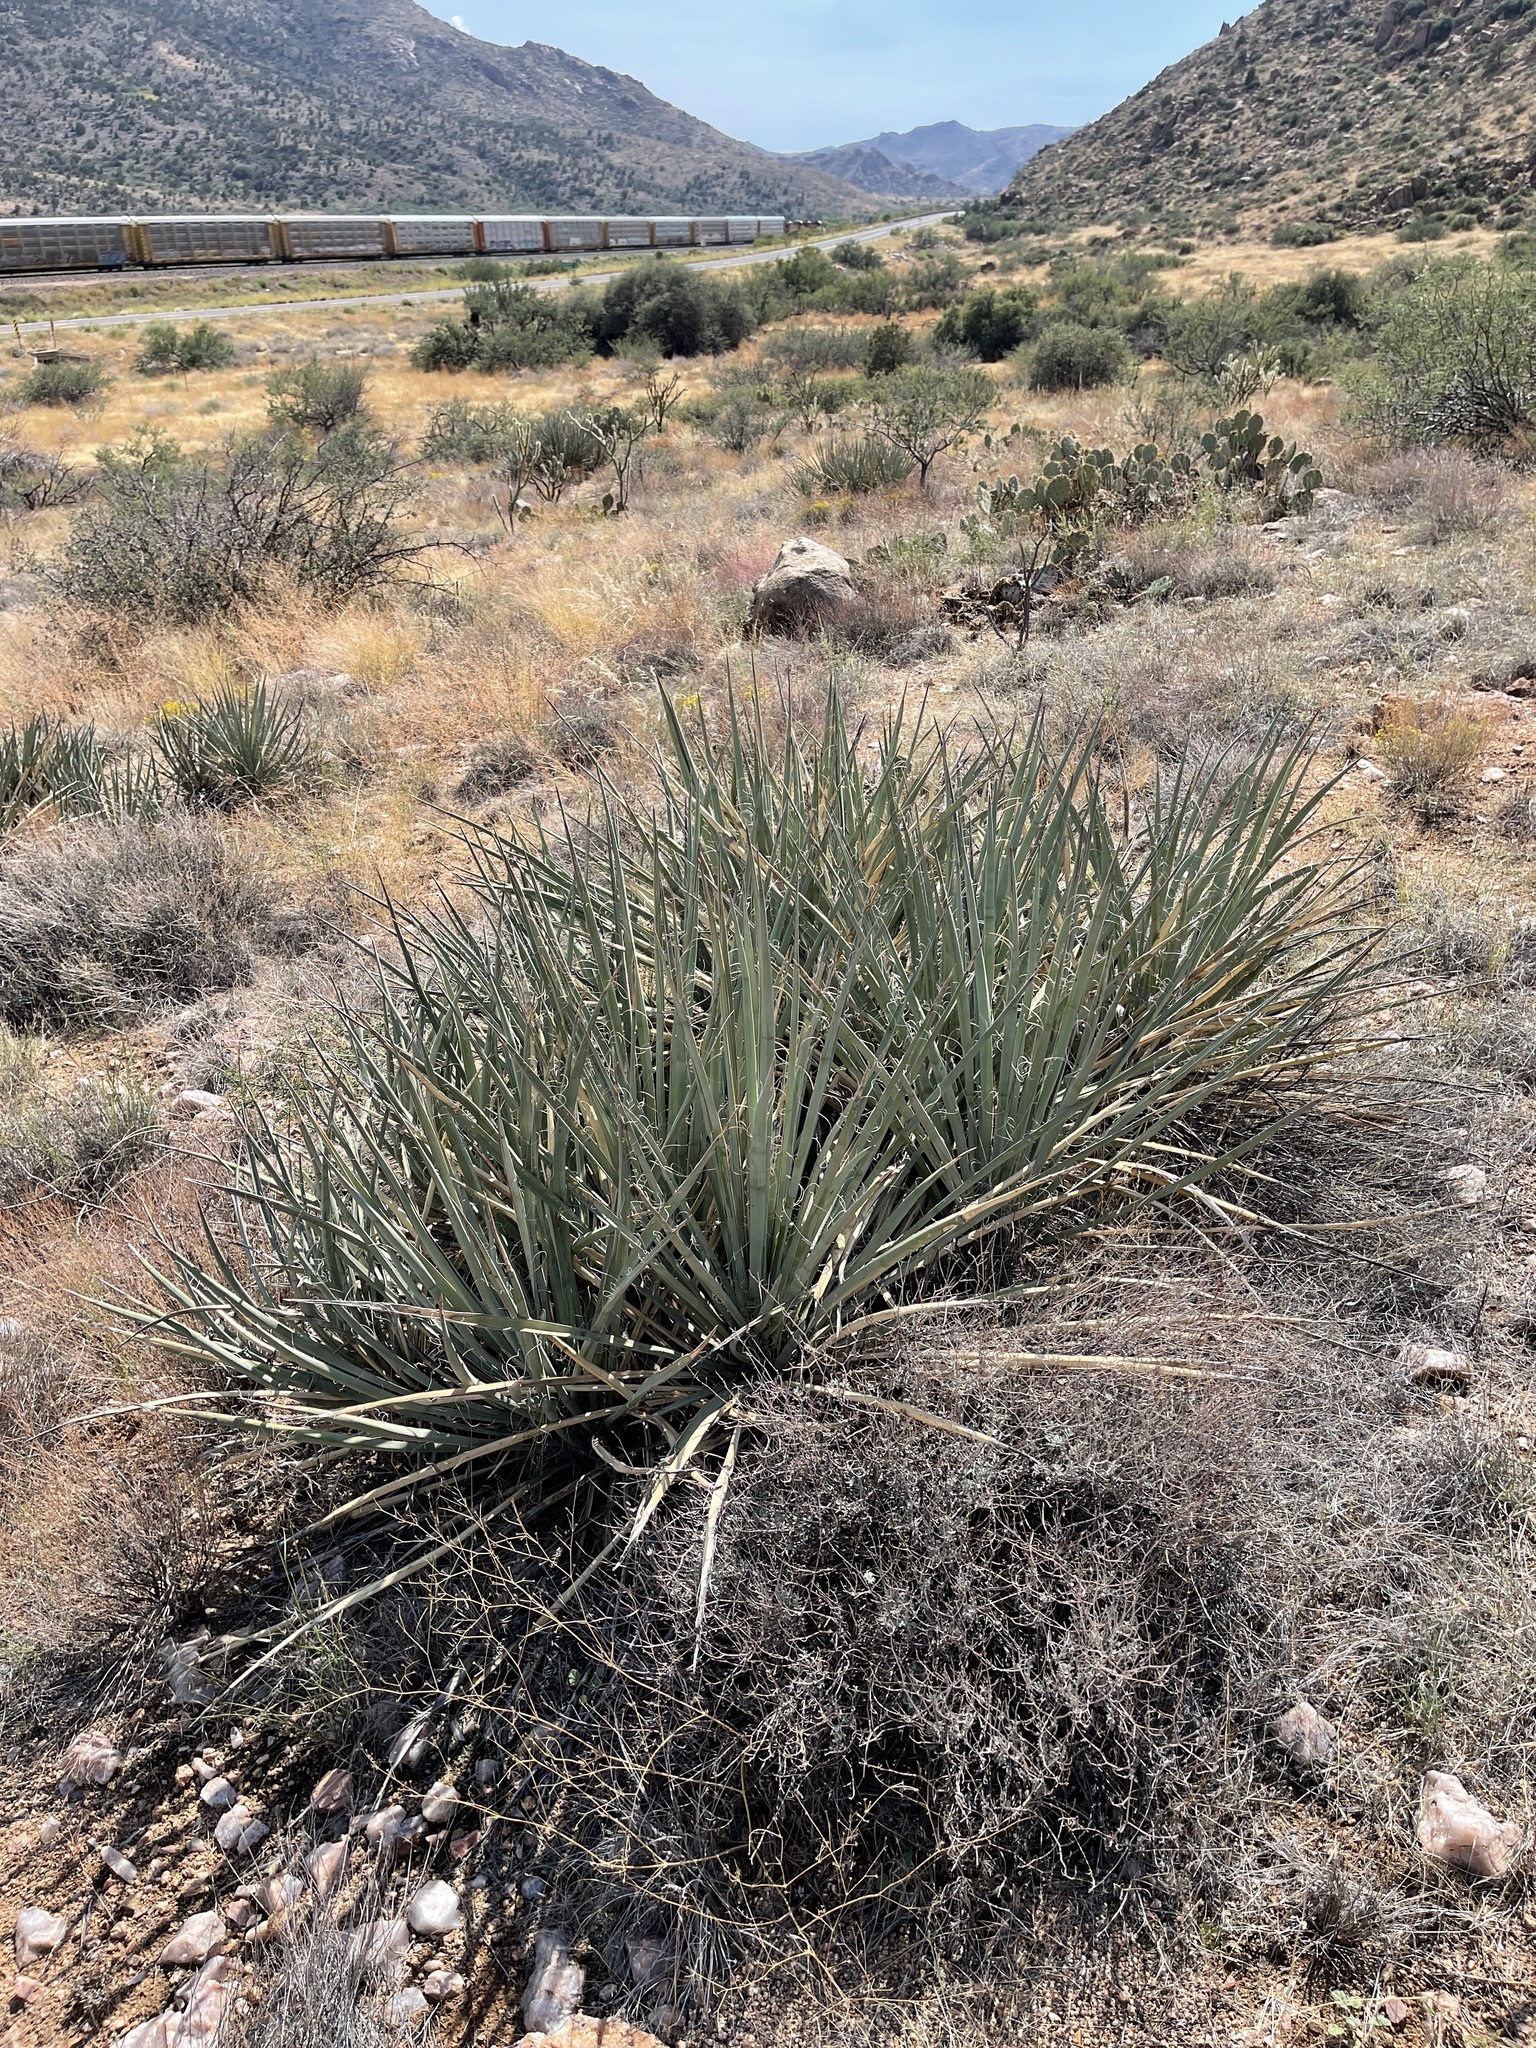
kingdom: Plantae
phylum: Tracheophyta
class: Liliopsida
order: Asparagales
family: Asparagaceae
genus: Yucca
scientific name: Yucca baccata
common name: Banana yucca
